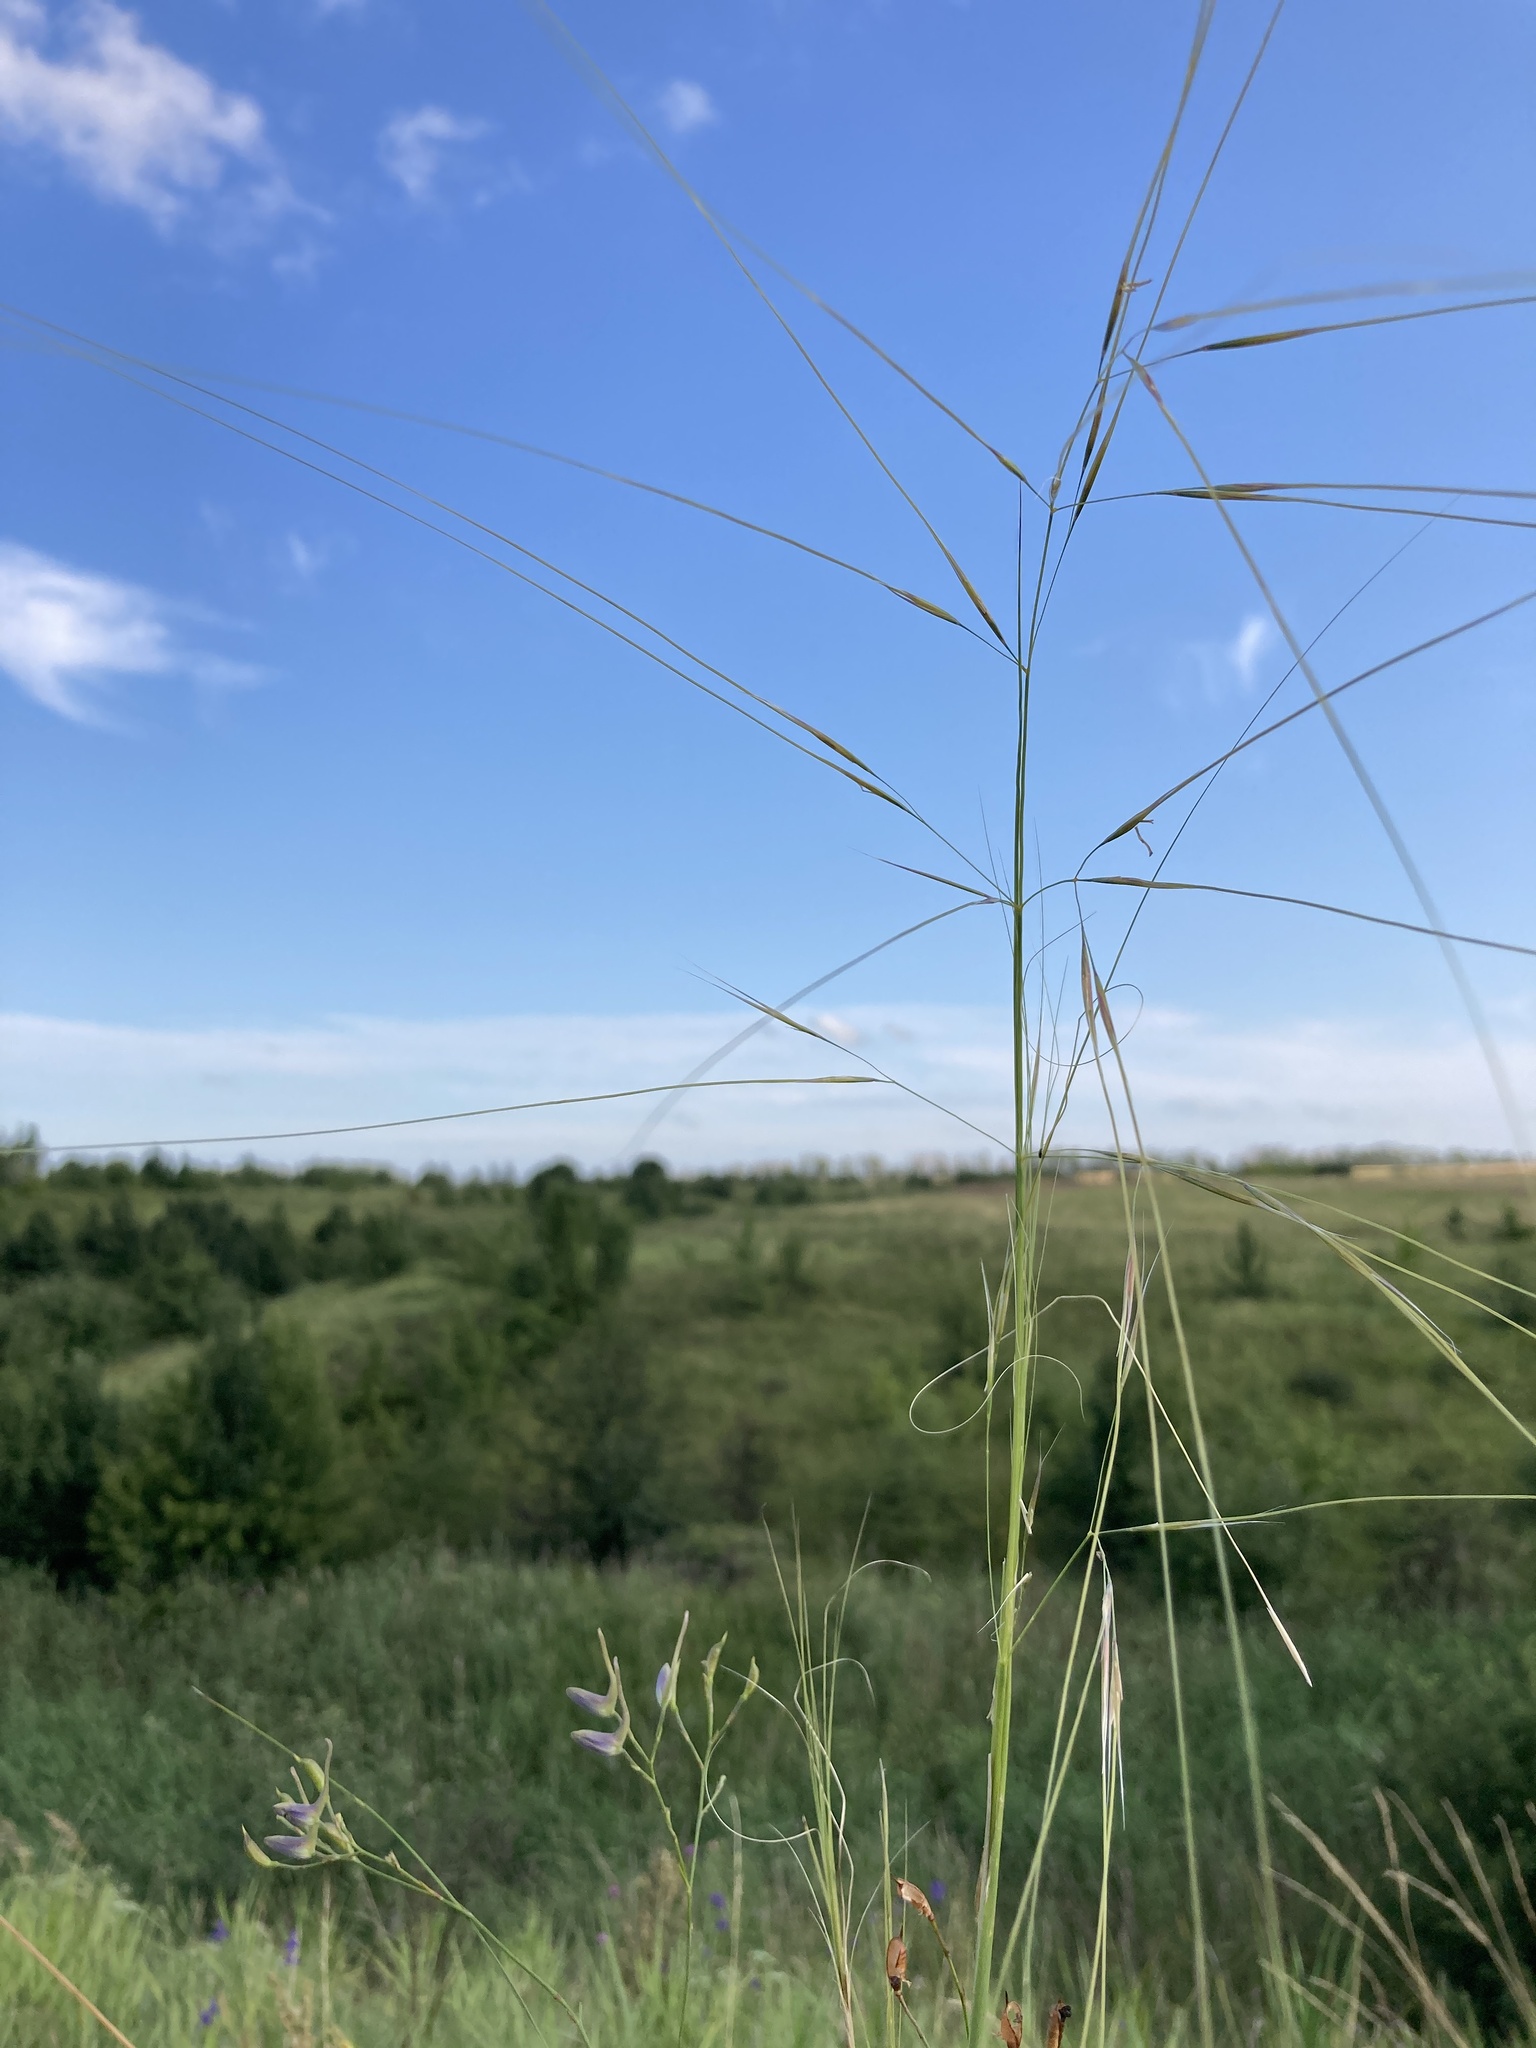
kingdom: Plantae
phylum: Tracheophyta
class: Liliopsida
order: Poales
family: Poaceae
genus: Stipa
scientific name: Stipa capillata
